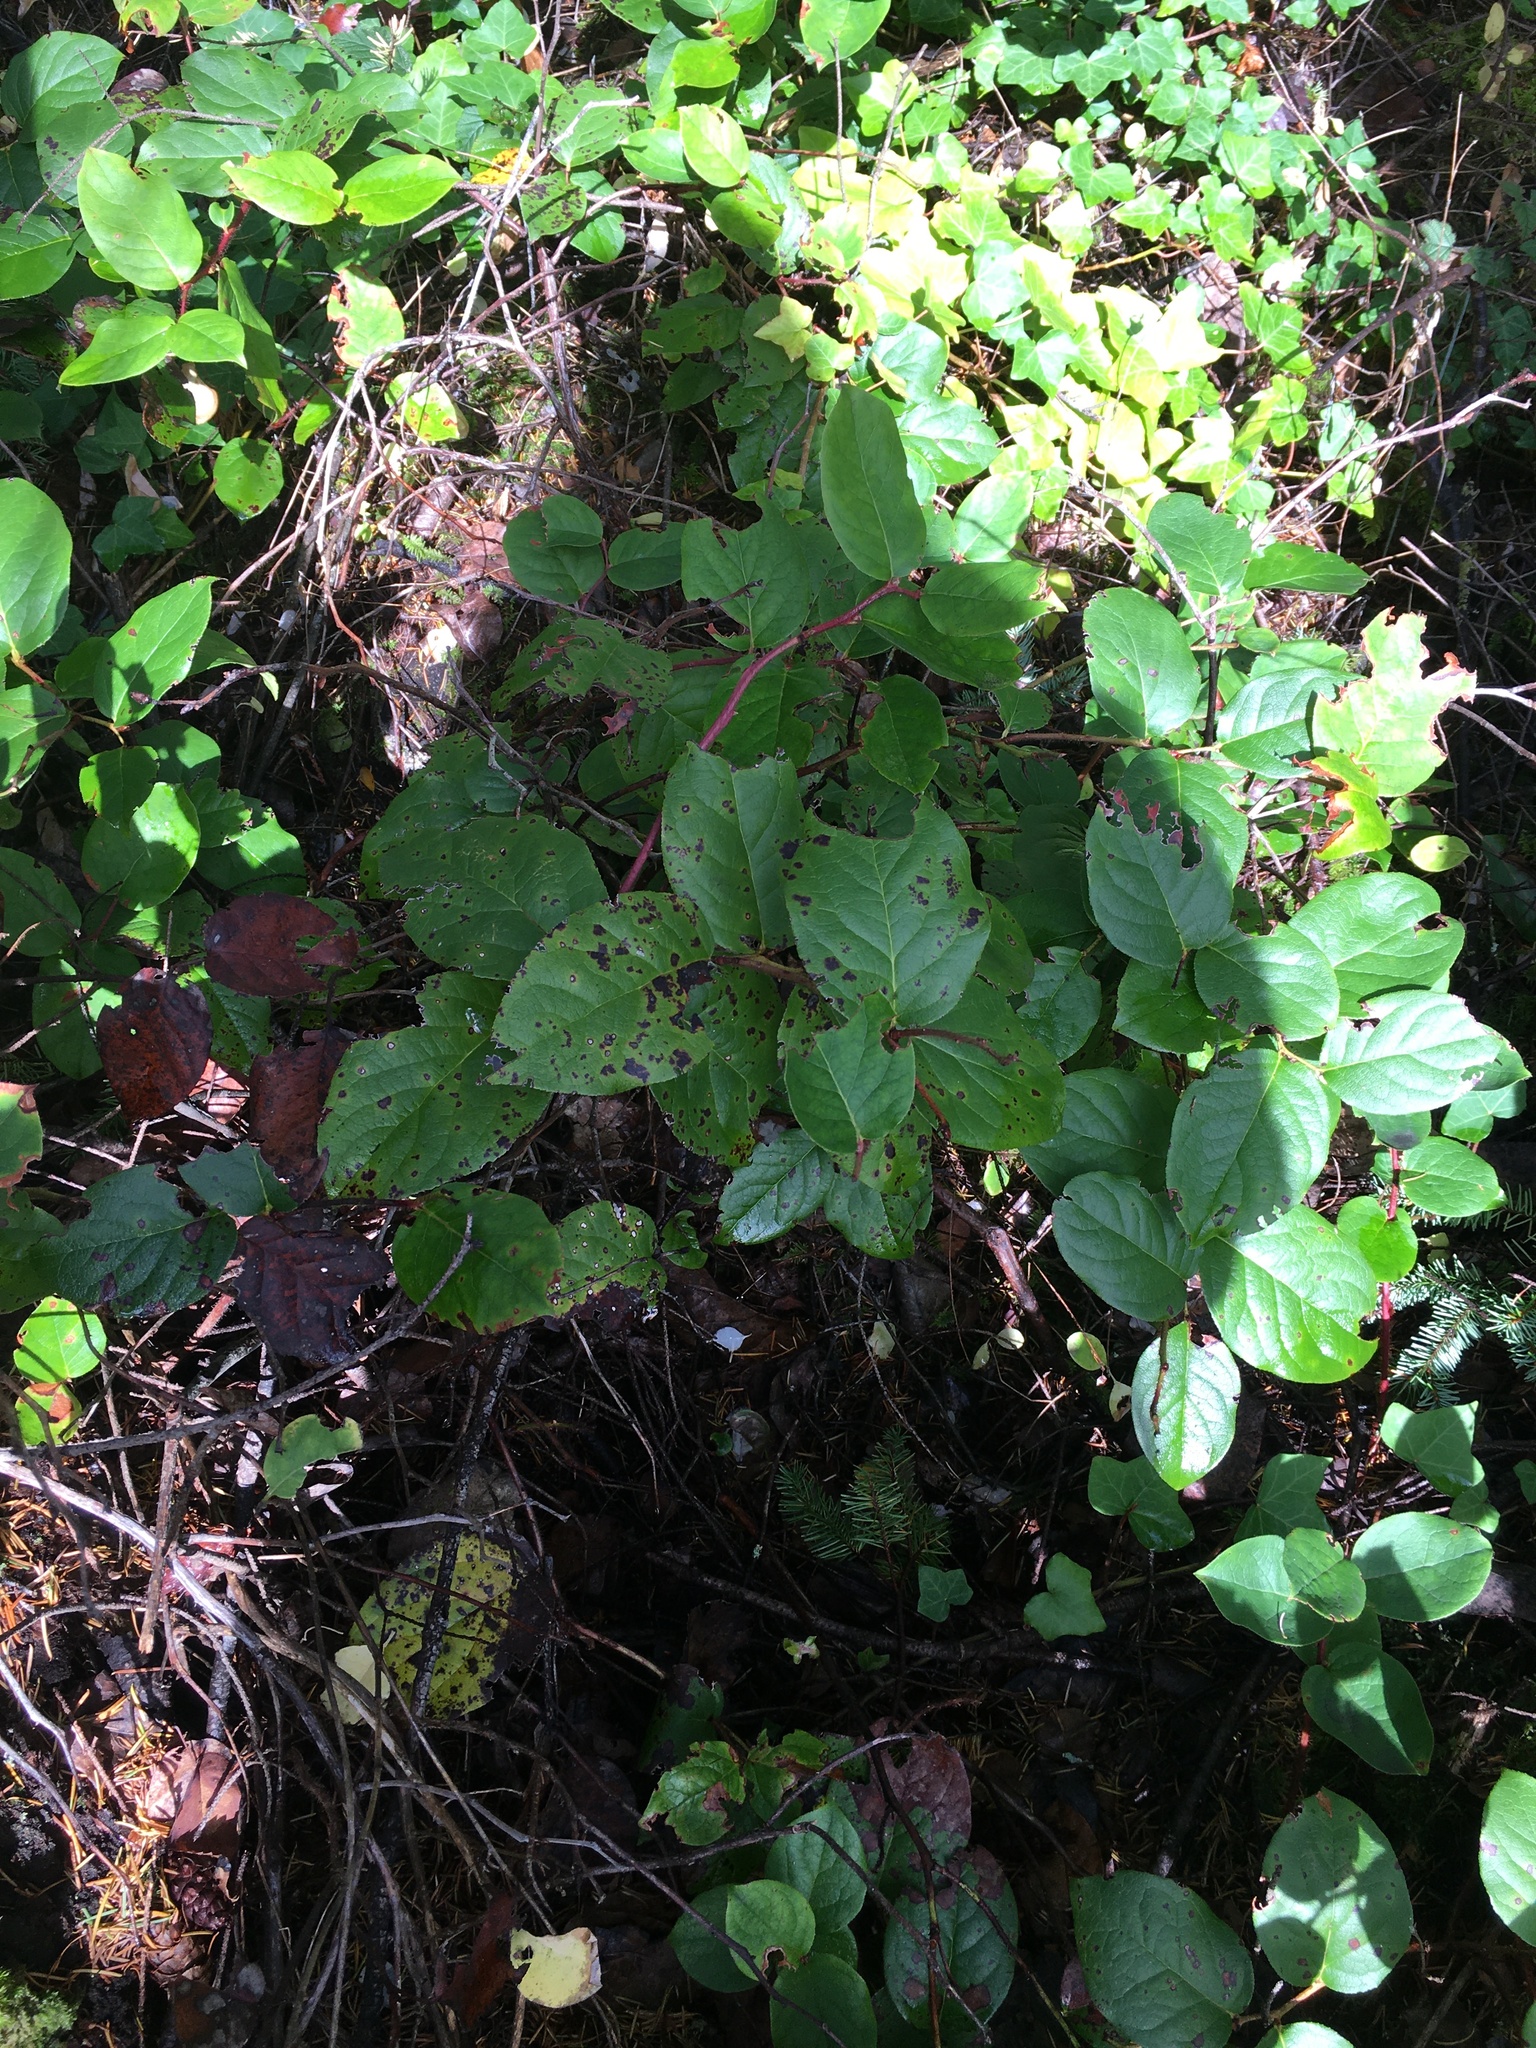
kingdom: Plantae
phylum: Tracheophyta
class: Magnoliopsida
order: Ericales
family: Ericaceae
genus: Gaultheria
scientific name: Gaultheria shallon
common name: Shallon
